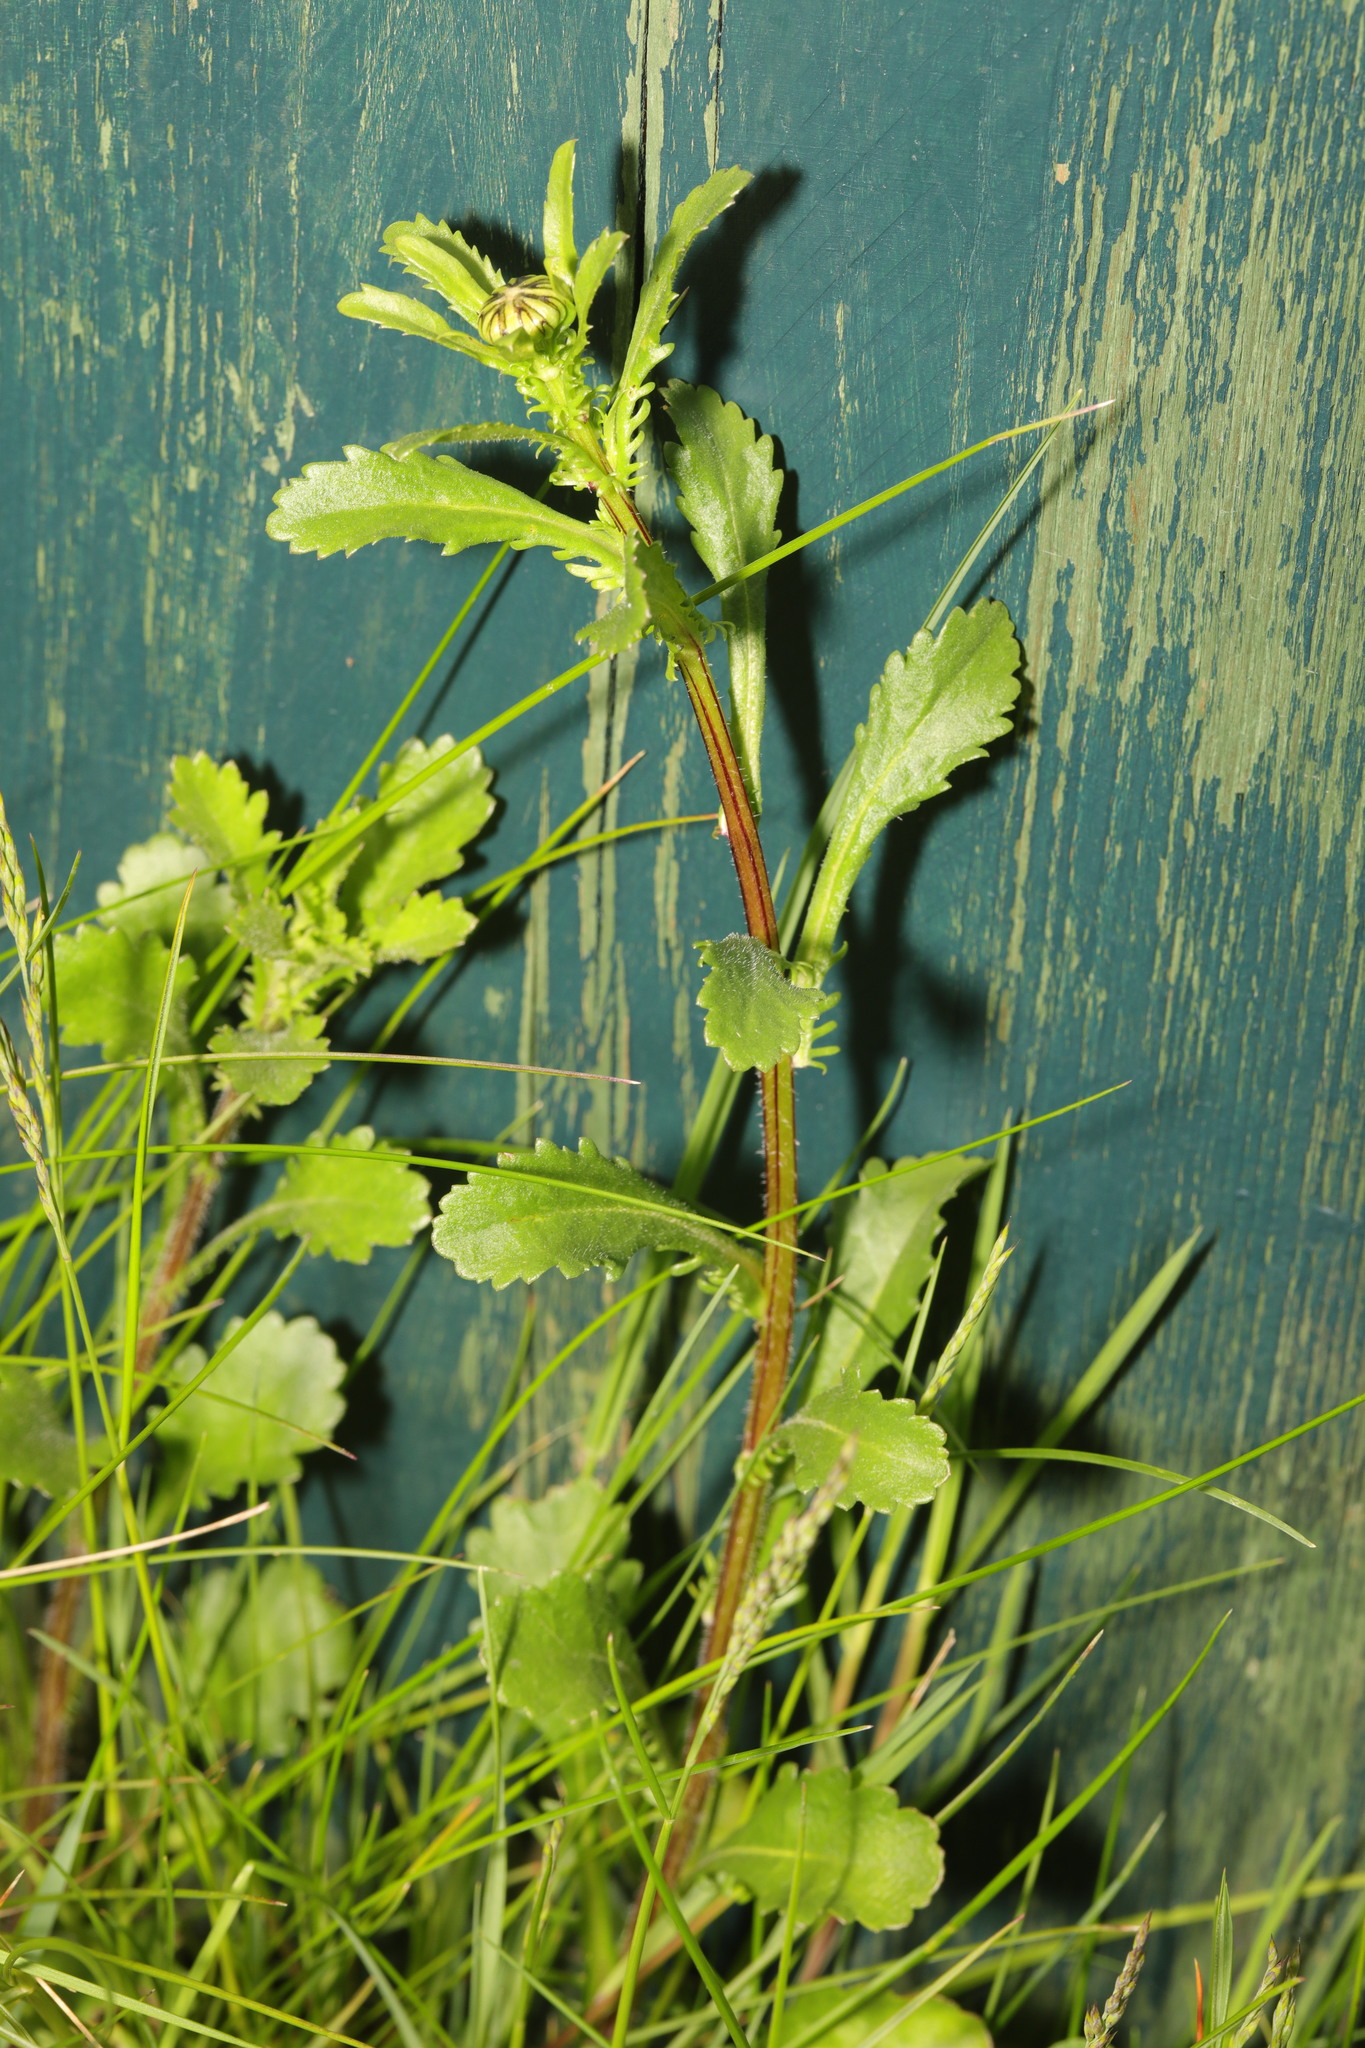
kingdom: Plantae
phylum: Tracheophyta
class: Magnoliopsida
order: Asterales
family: Asteraceae
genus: Leucanthemum
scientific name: Leucanthemum vulgare
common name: Oxeye daisy
